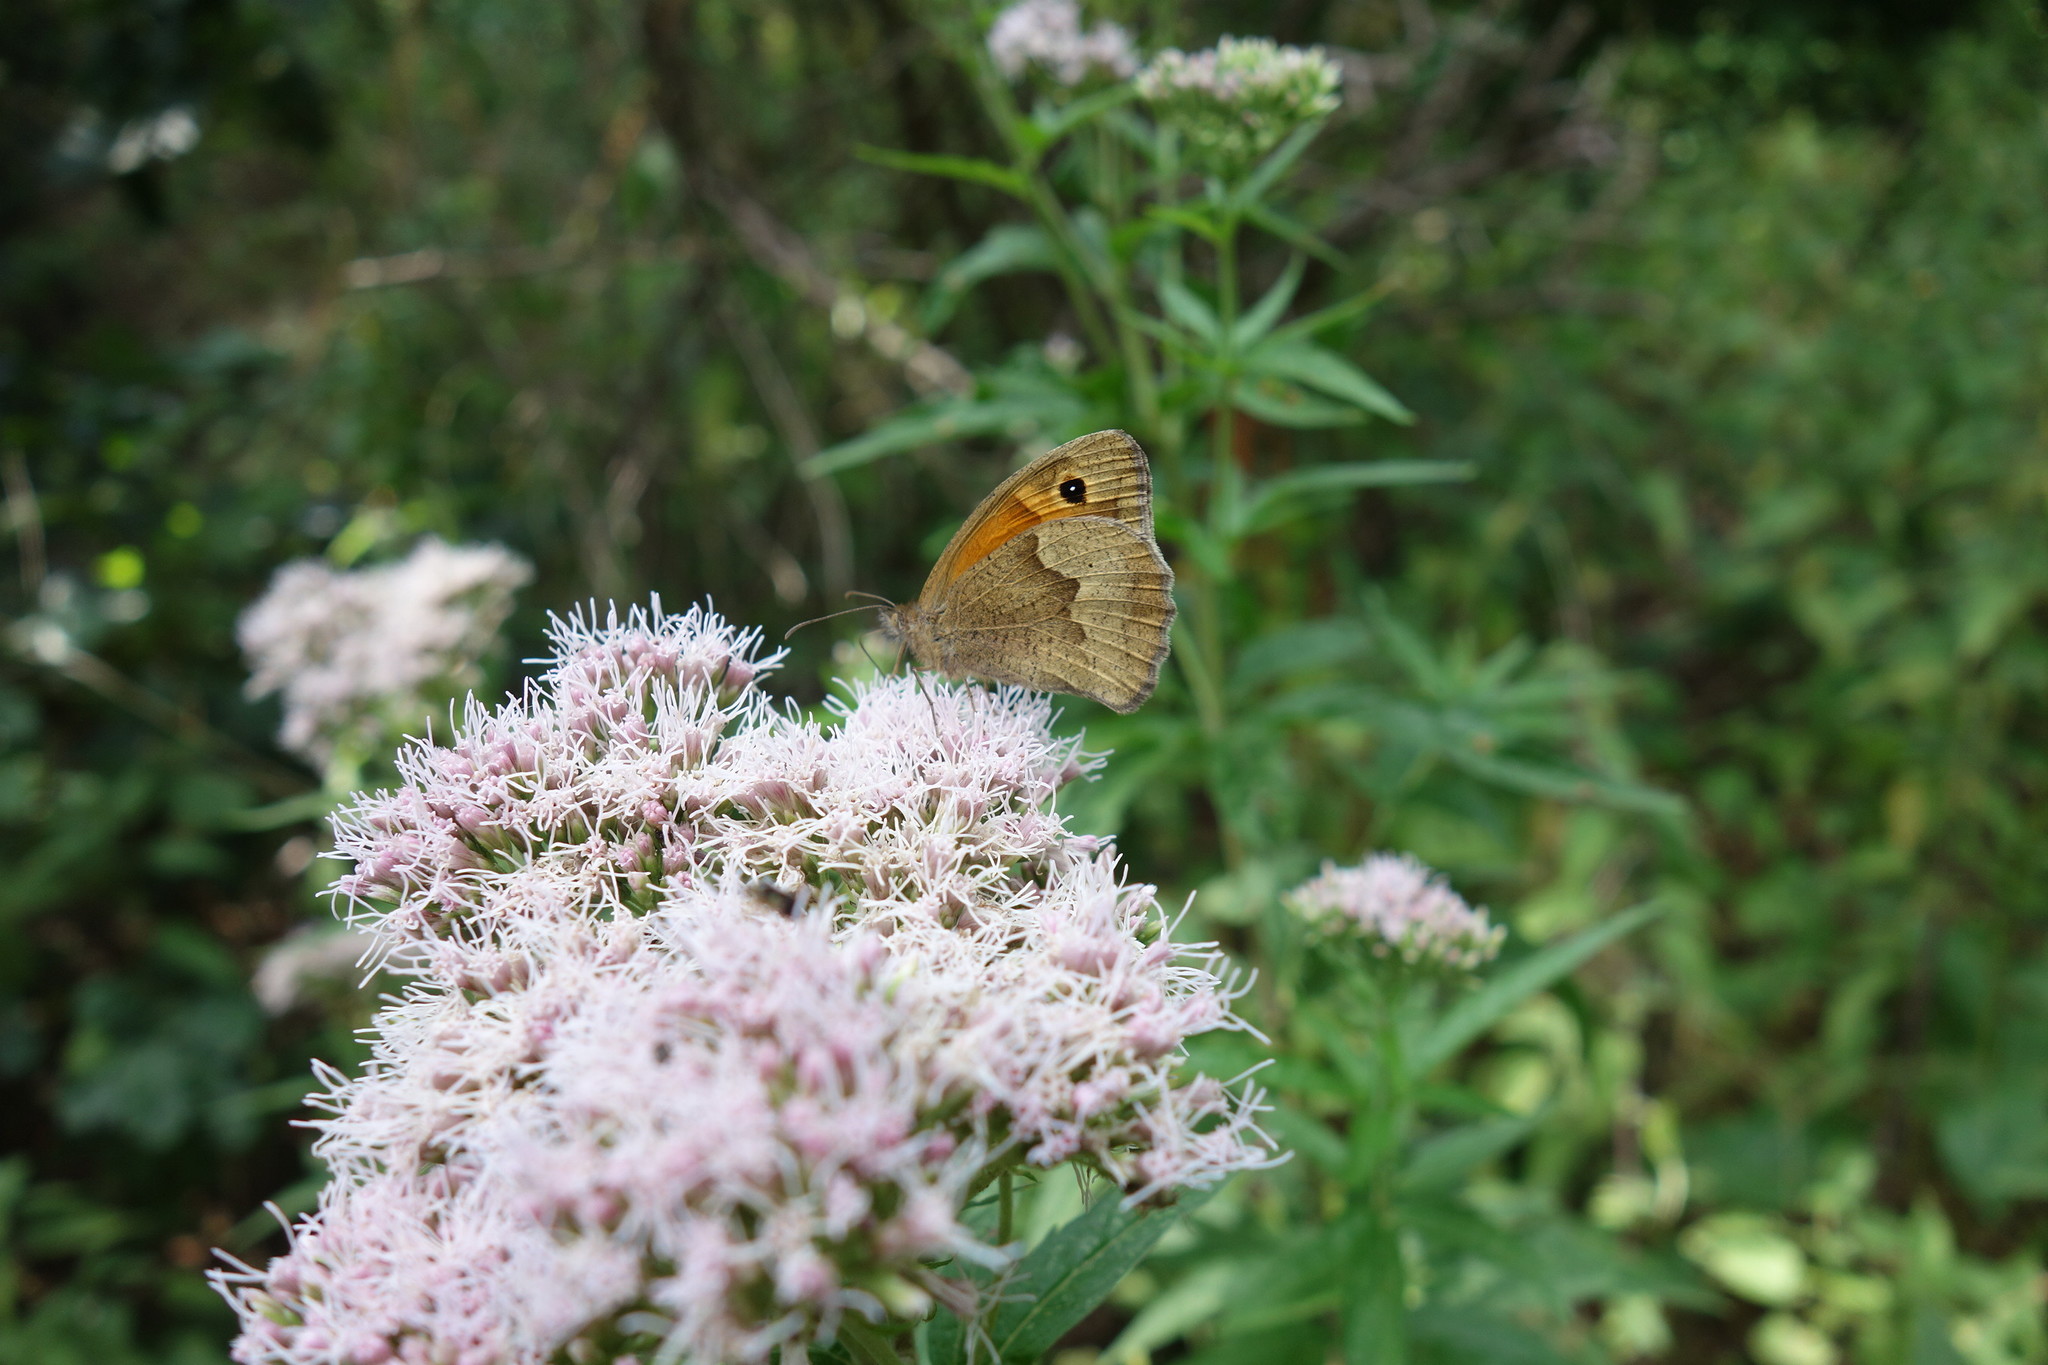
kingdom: Animalia
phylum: Arthropoda
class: Insecta
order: Lepidoptera
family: Nymphalidae
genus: Maniola
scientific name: Maniola jurtina
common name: Meadow brown
